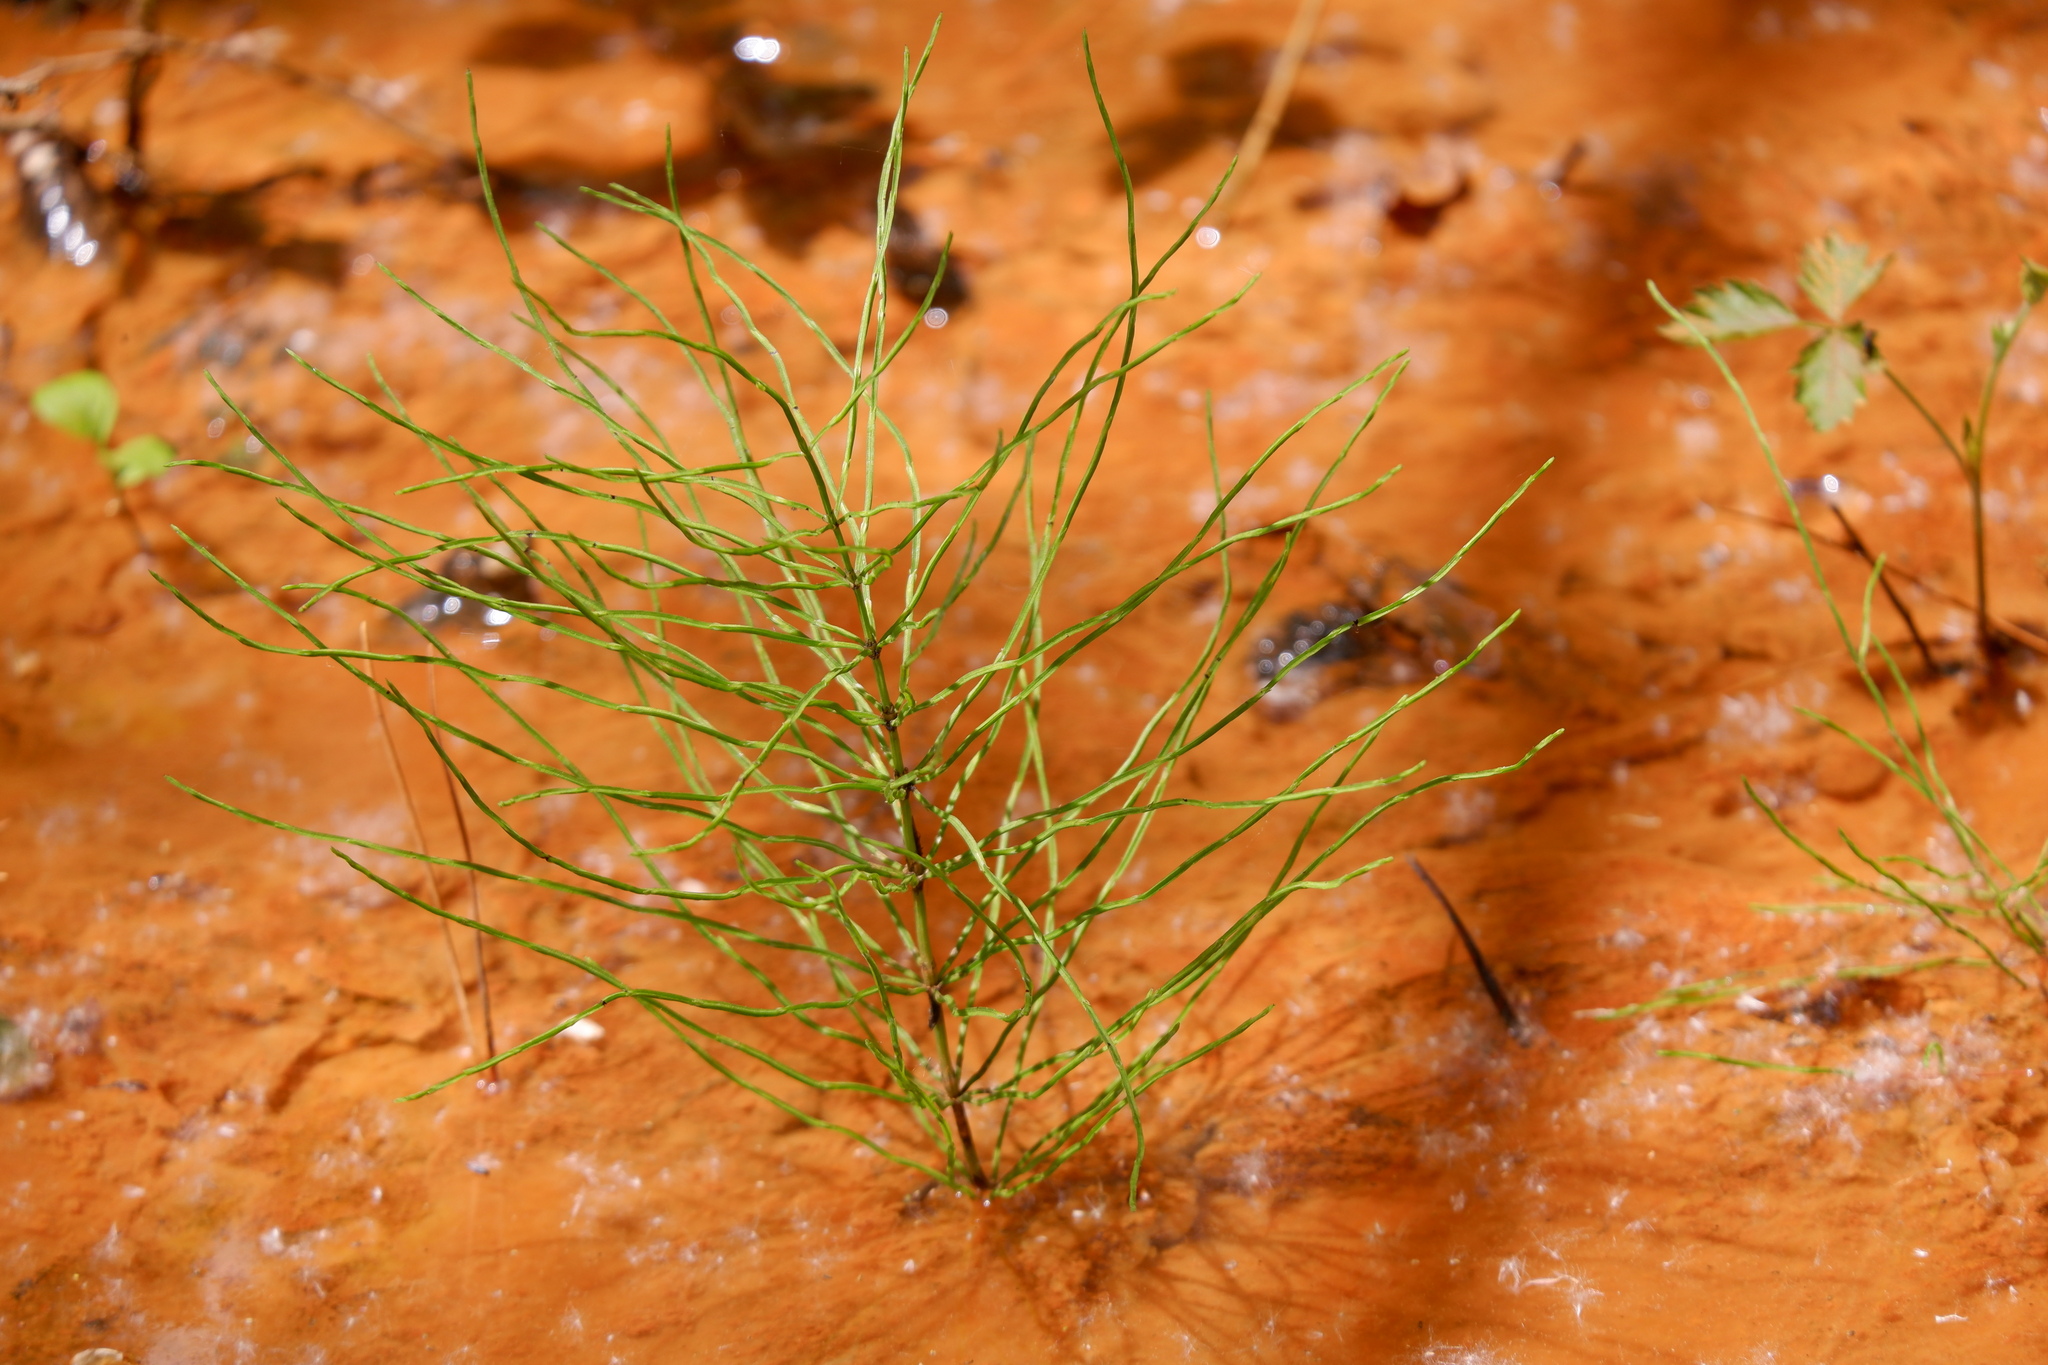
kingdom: Plantae
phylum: Tracheophyta
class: Polypodiopsida
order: Equisetales
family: Equisetaceae
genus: Equisetum
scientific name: Equisetum arvense
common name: Field horsetail
